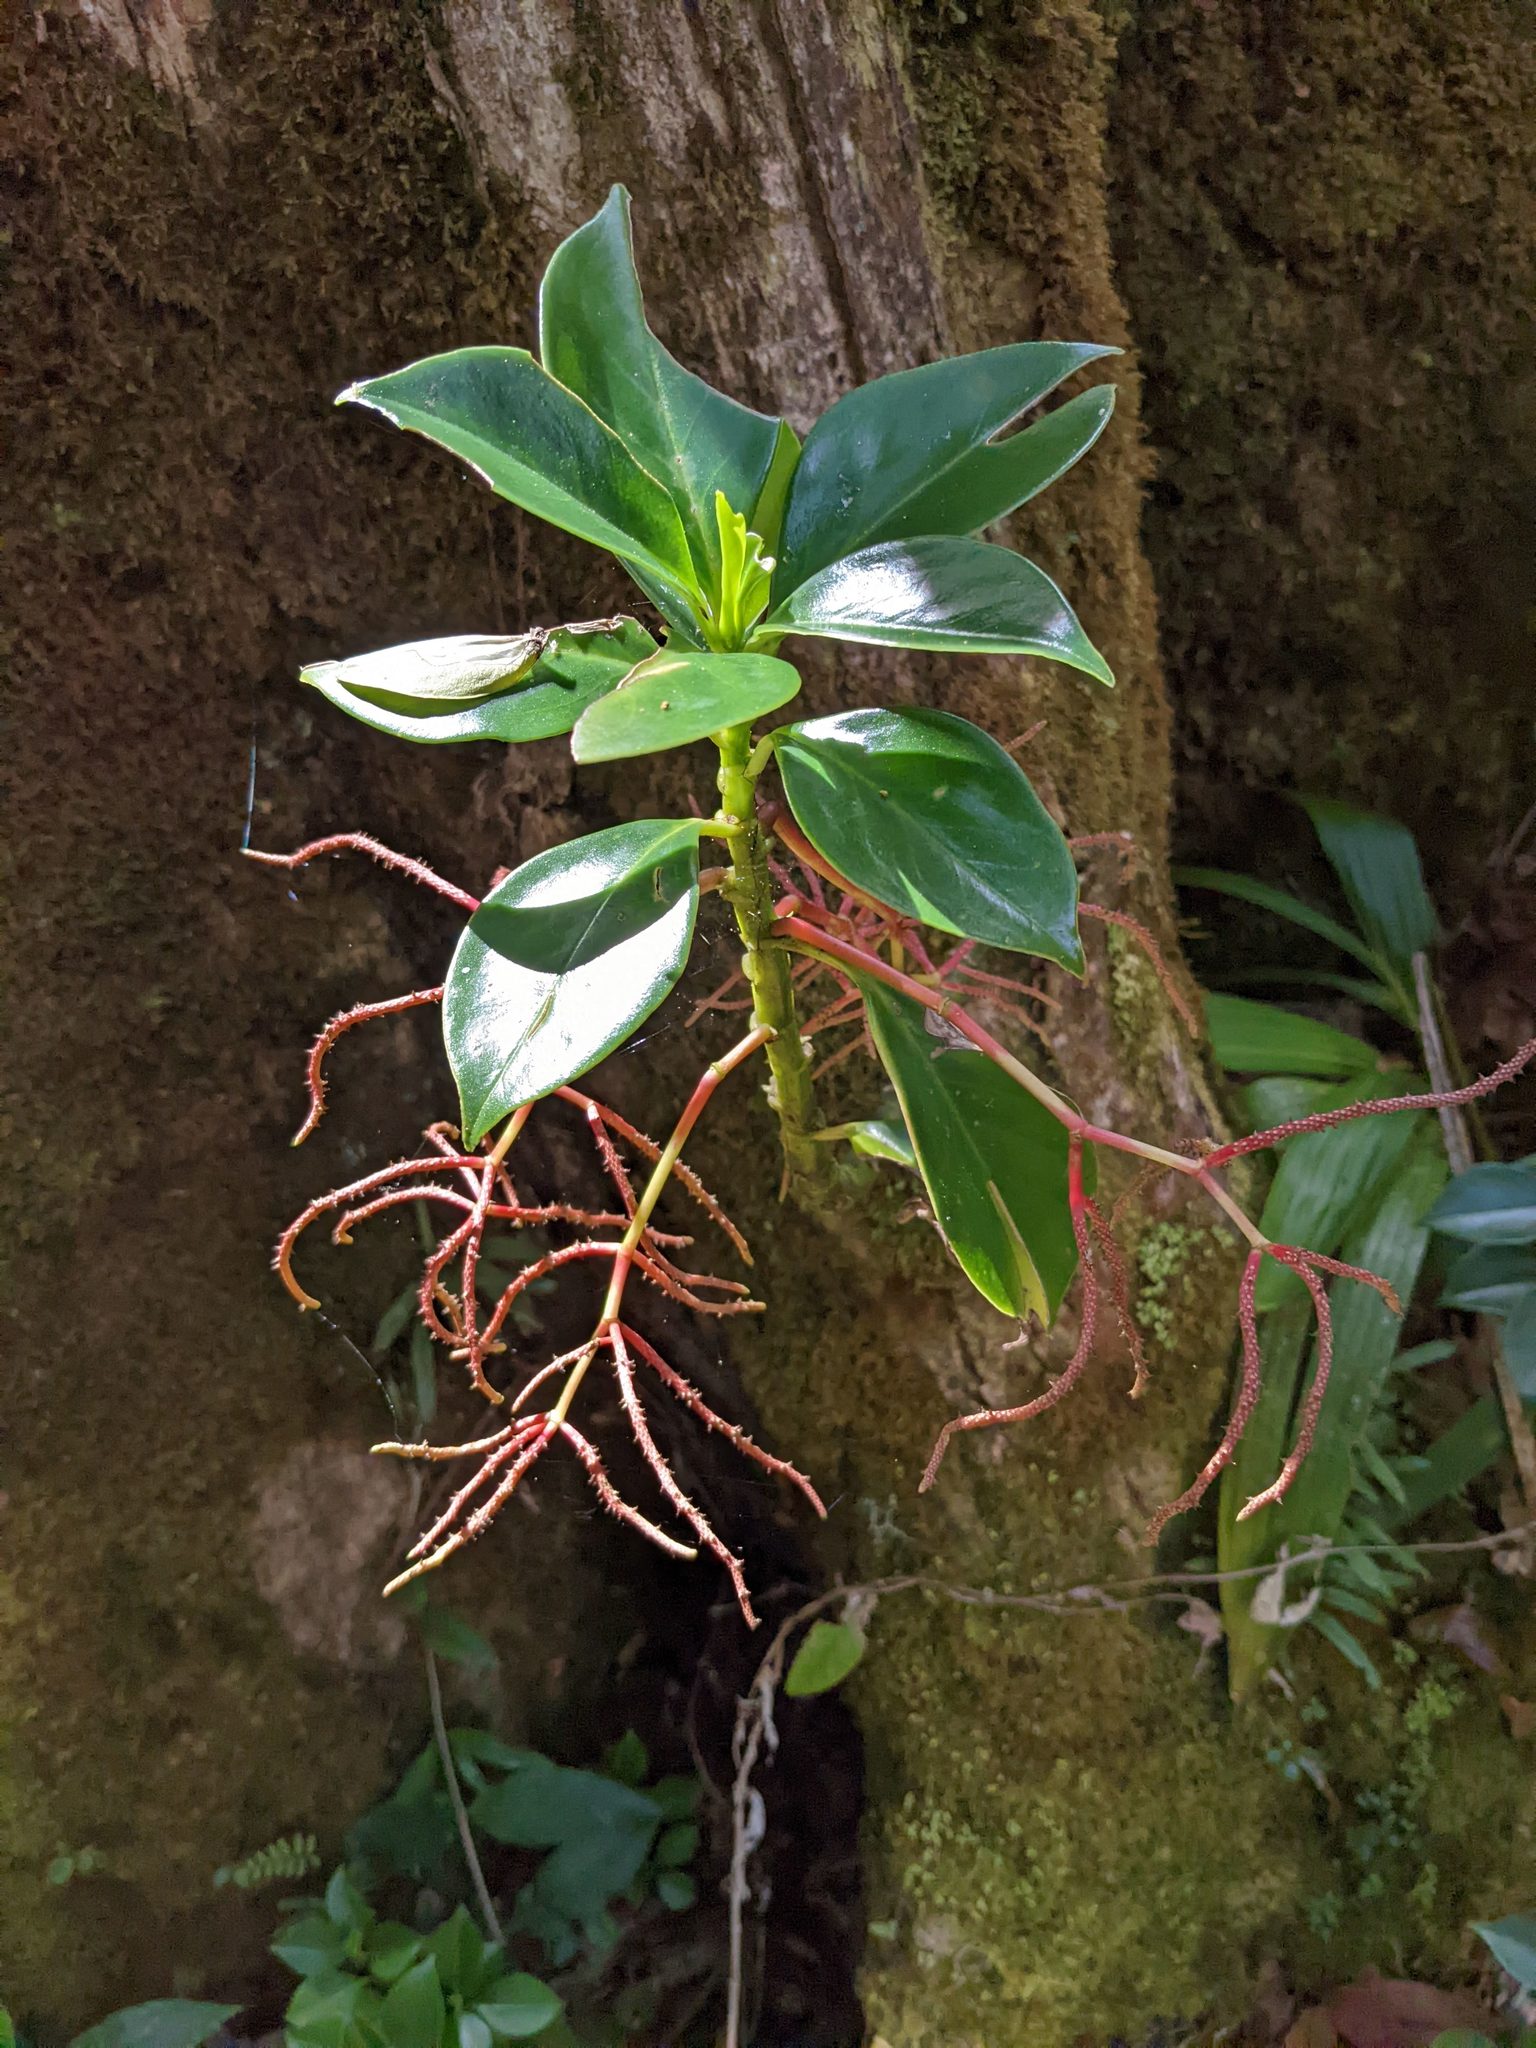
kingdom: Plantae
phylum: Tracheophyta
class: Magnoliopsida
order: Piperales
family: Piperaceae
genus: Peperomia
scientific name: Peperomia dotana
